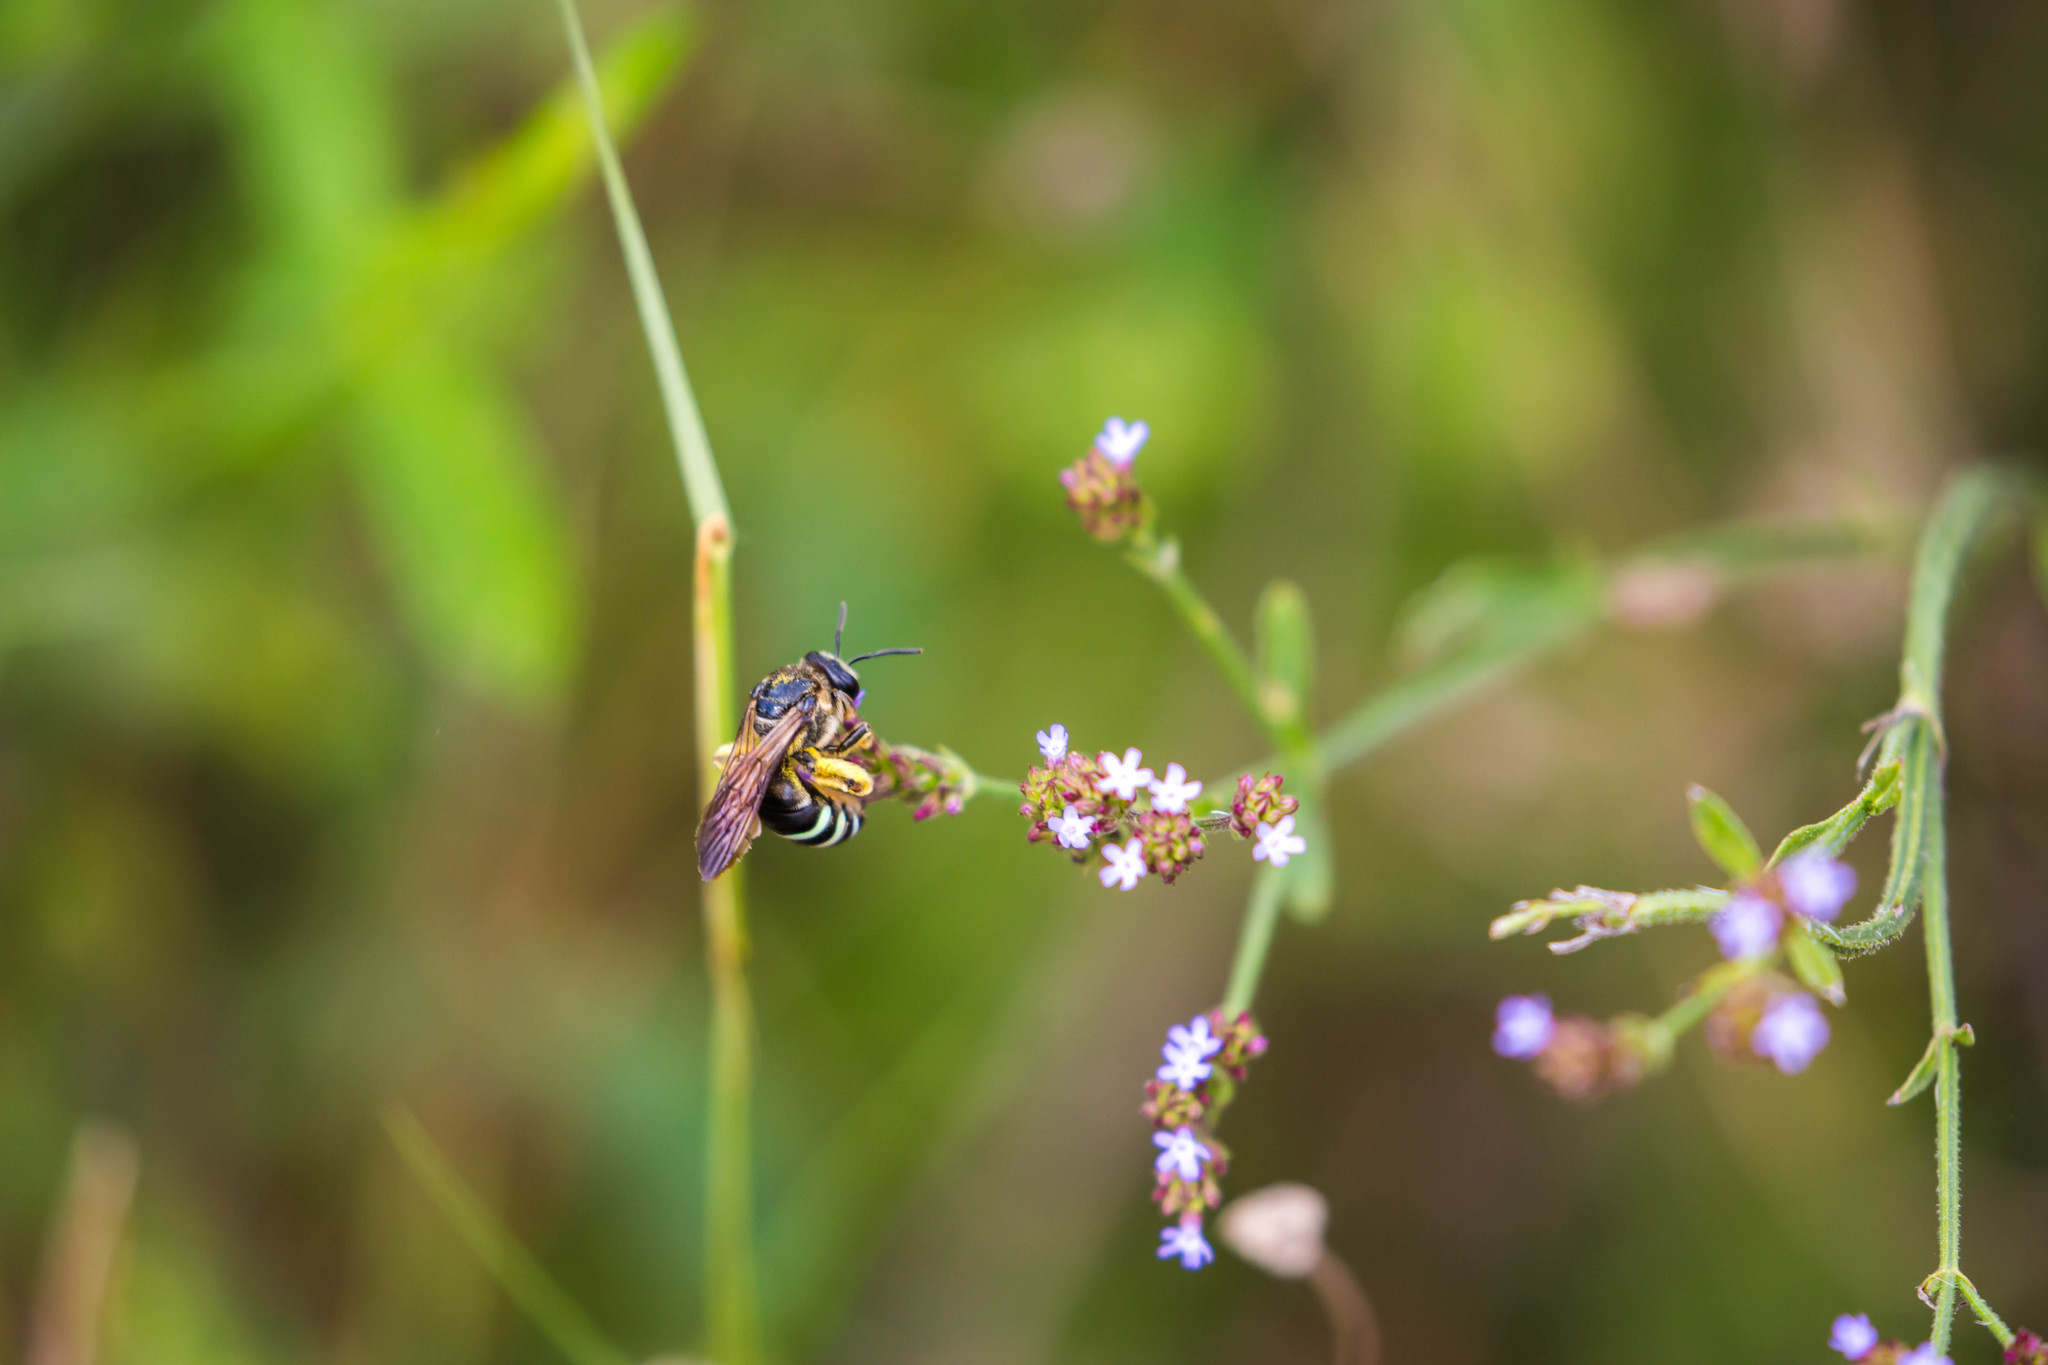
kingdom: Animalia
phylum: Arthropoda
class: Insecta
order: Hymenoptera
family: Halictidae
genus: Nomia
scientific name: Nomia nortoni
